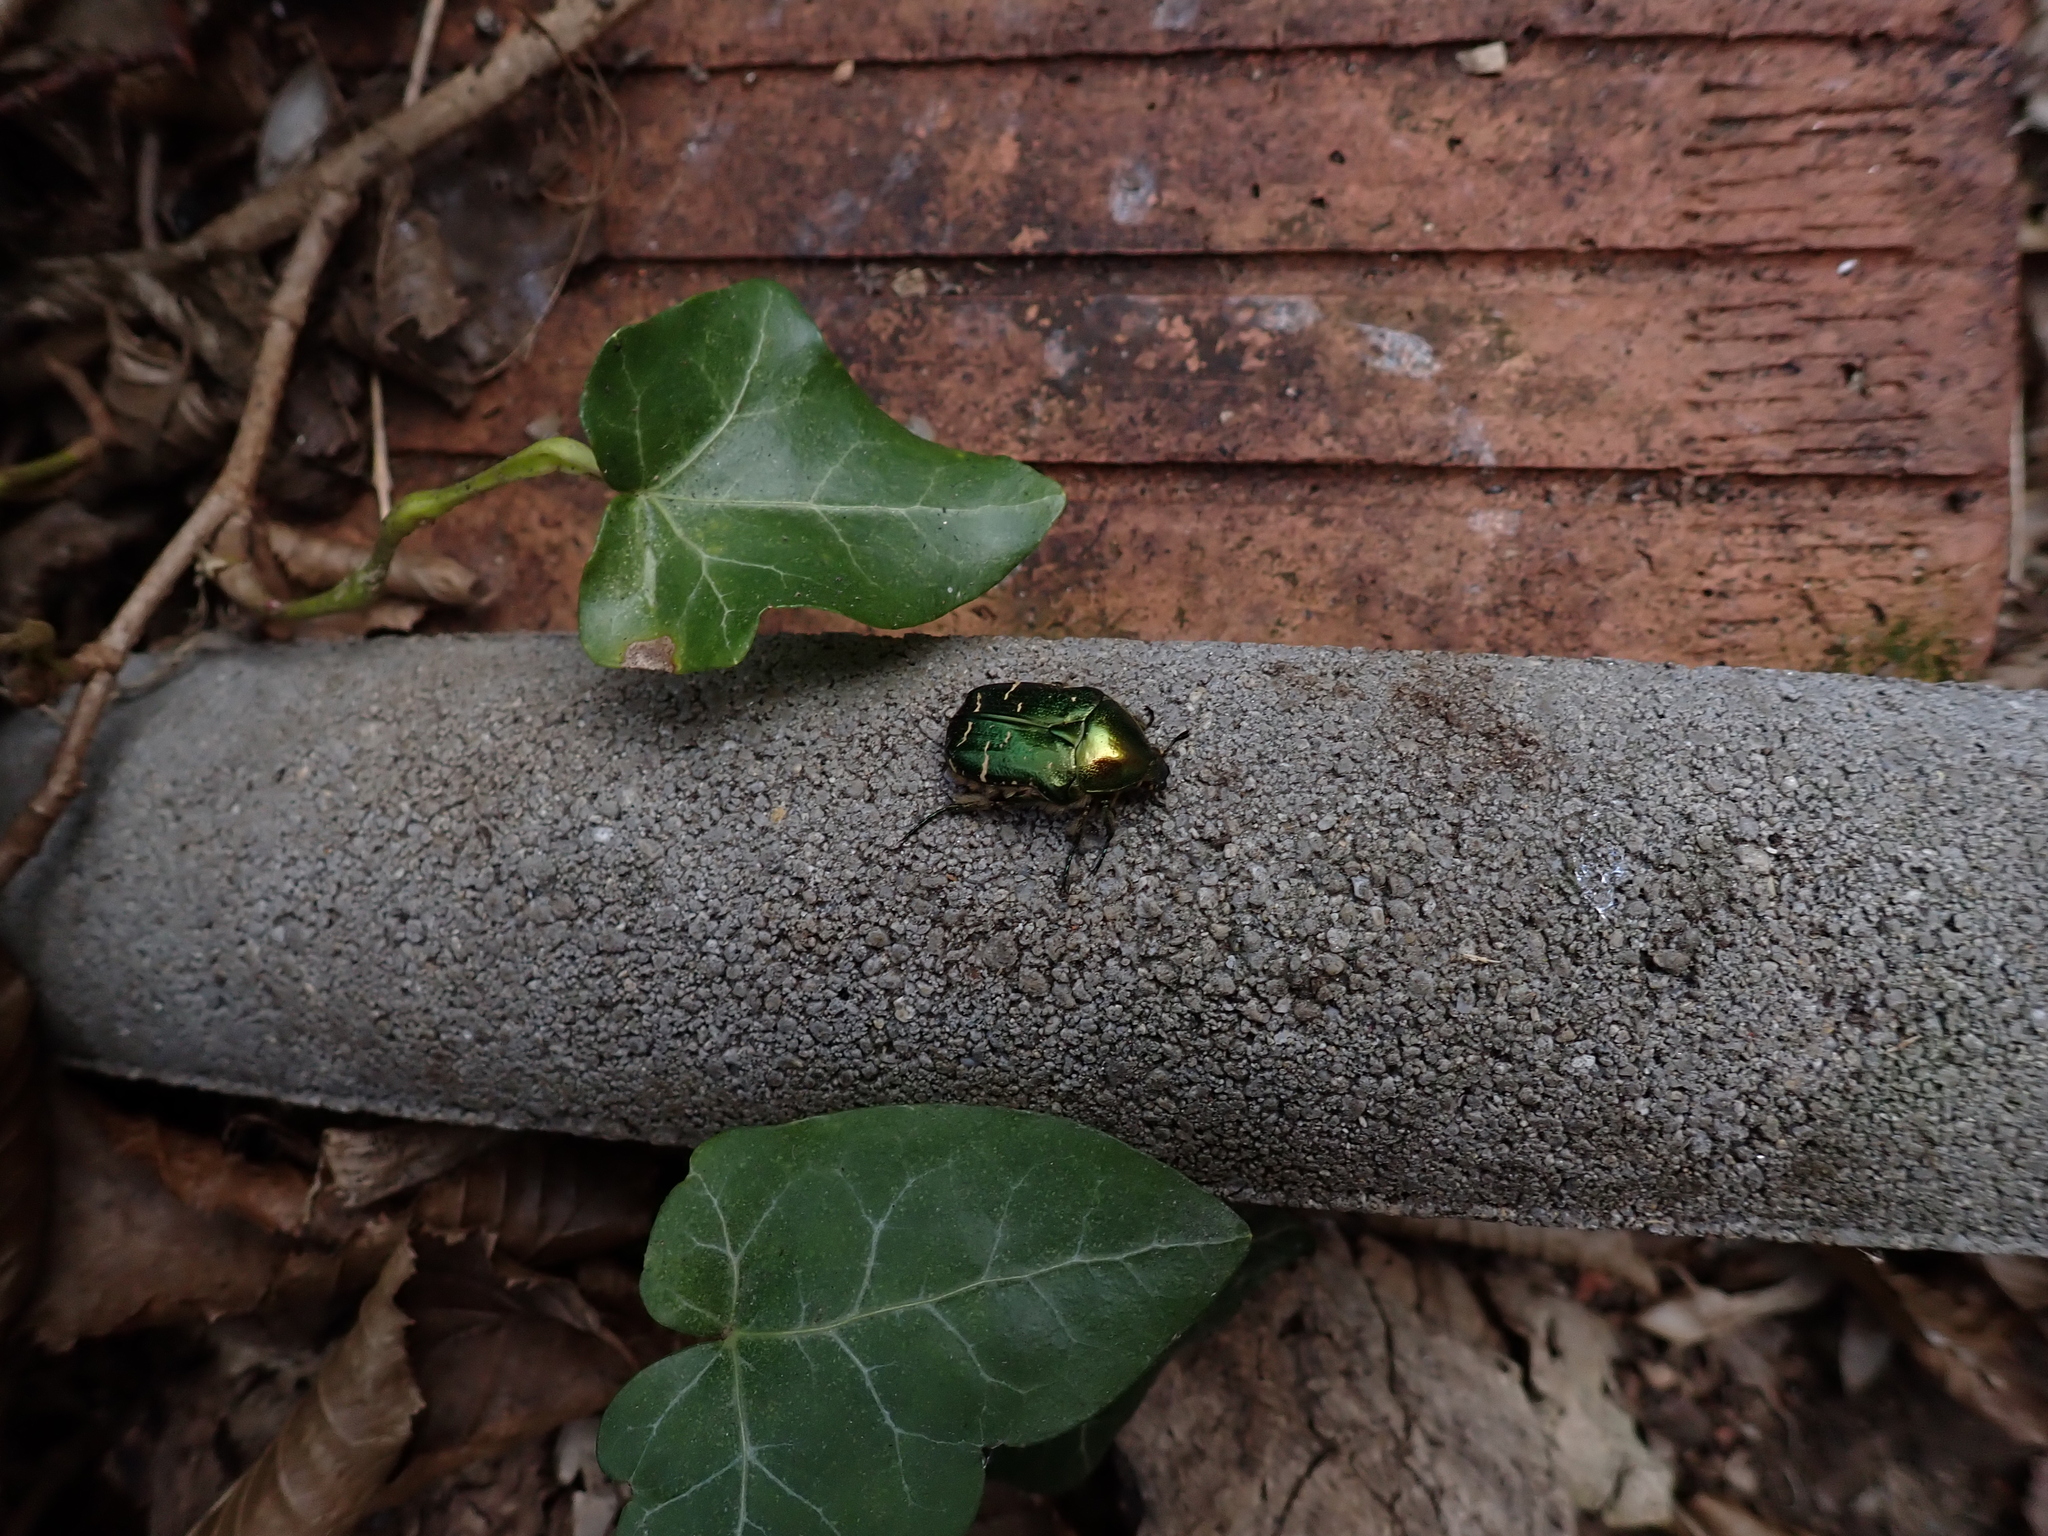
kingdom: Animalia
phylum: Arthropoda
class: Insecta
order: Coleoptera
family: Scarabaeidae
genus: Cetonia
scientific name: Cetonia aurata
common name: Rose chafer
